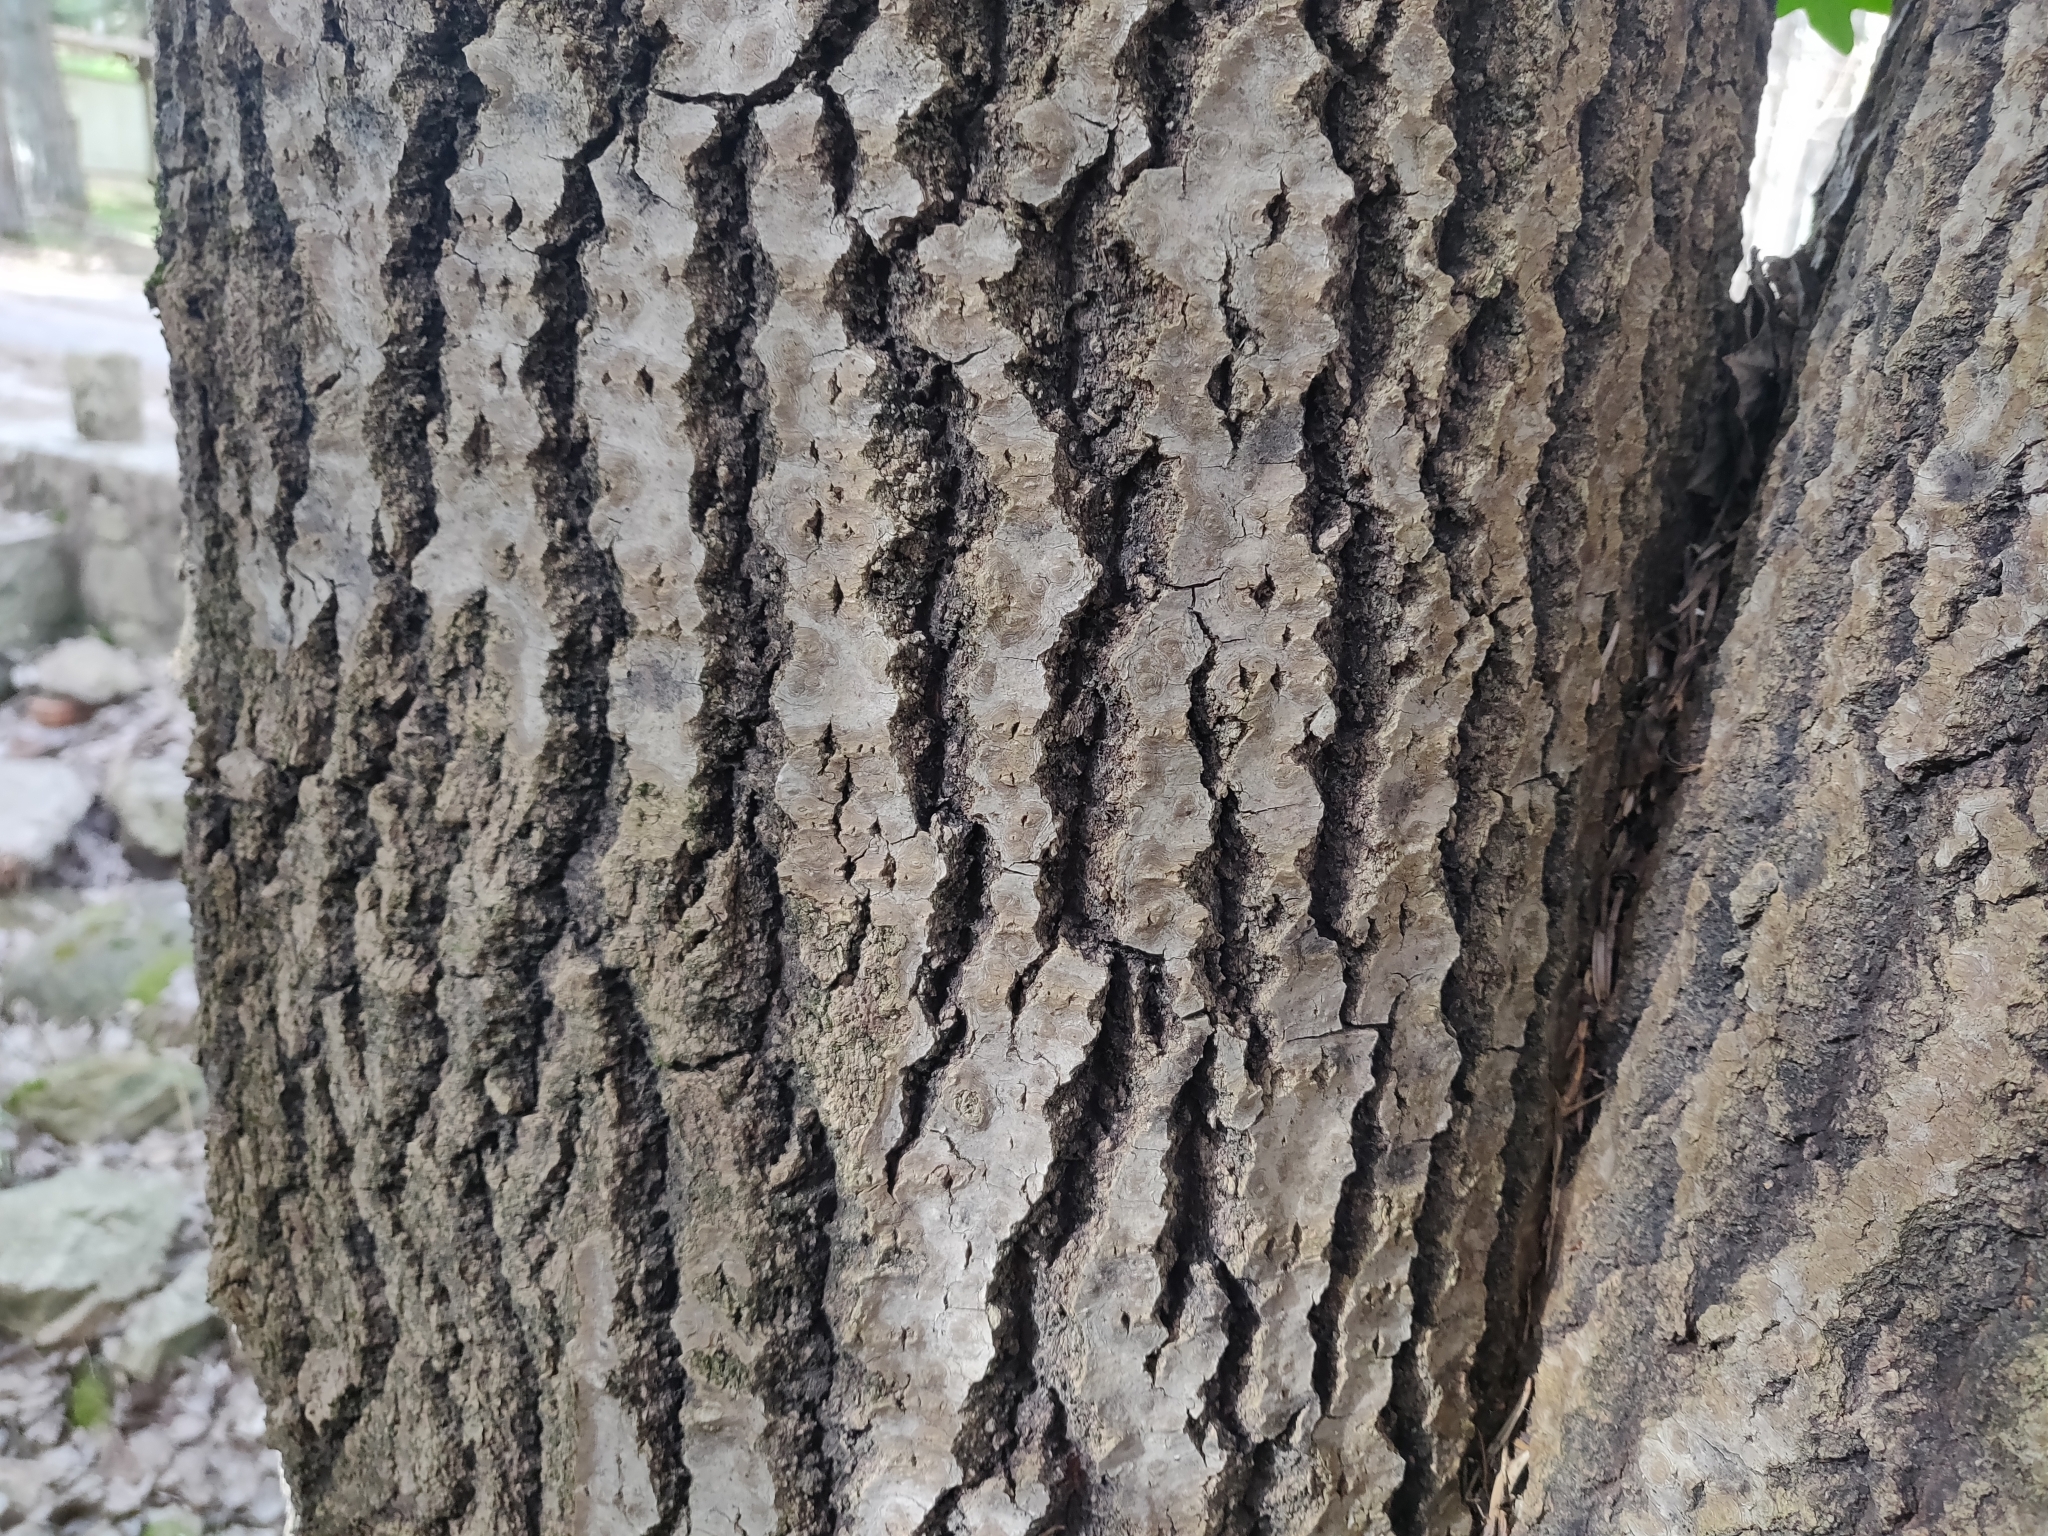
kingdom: Plantae
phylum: Tracheophyta
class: Magnoliopsida
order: Malpighiales
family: Salicaceae
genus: Populus
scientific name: Populus tremula
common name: European aspen
